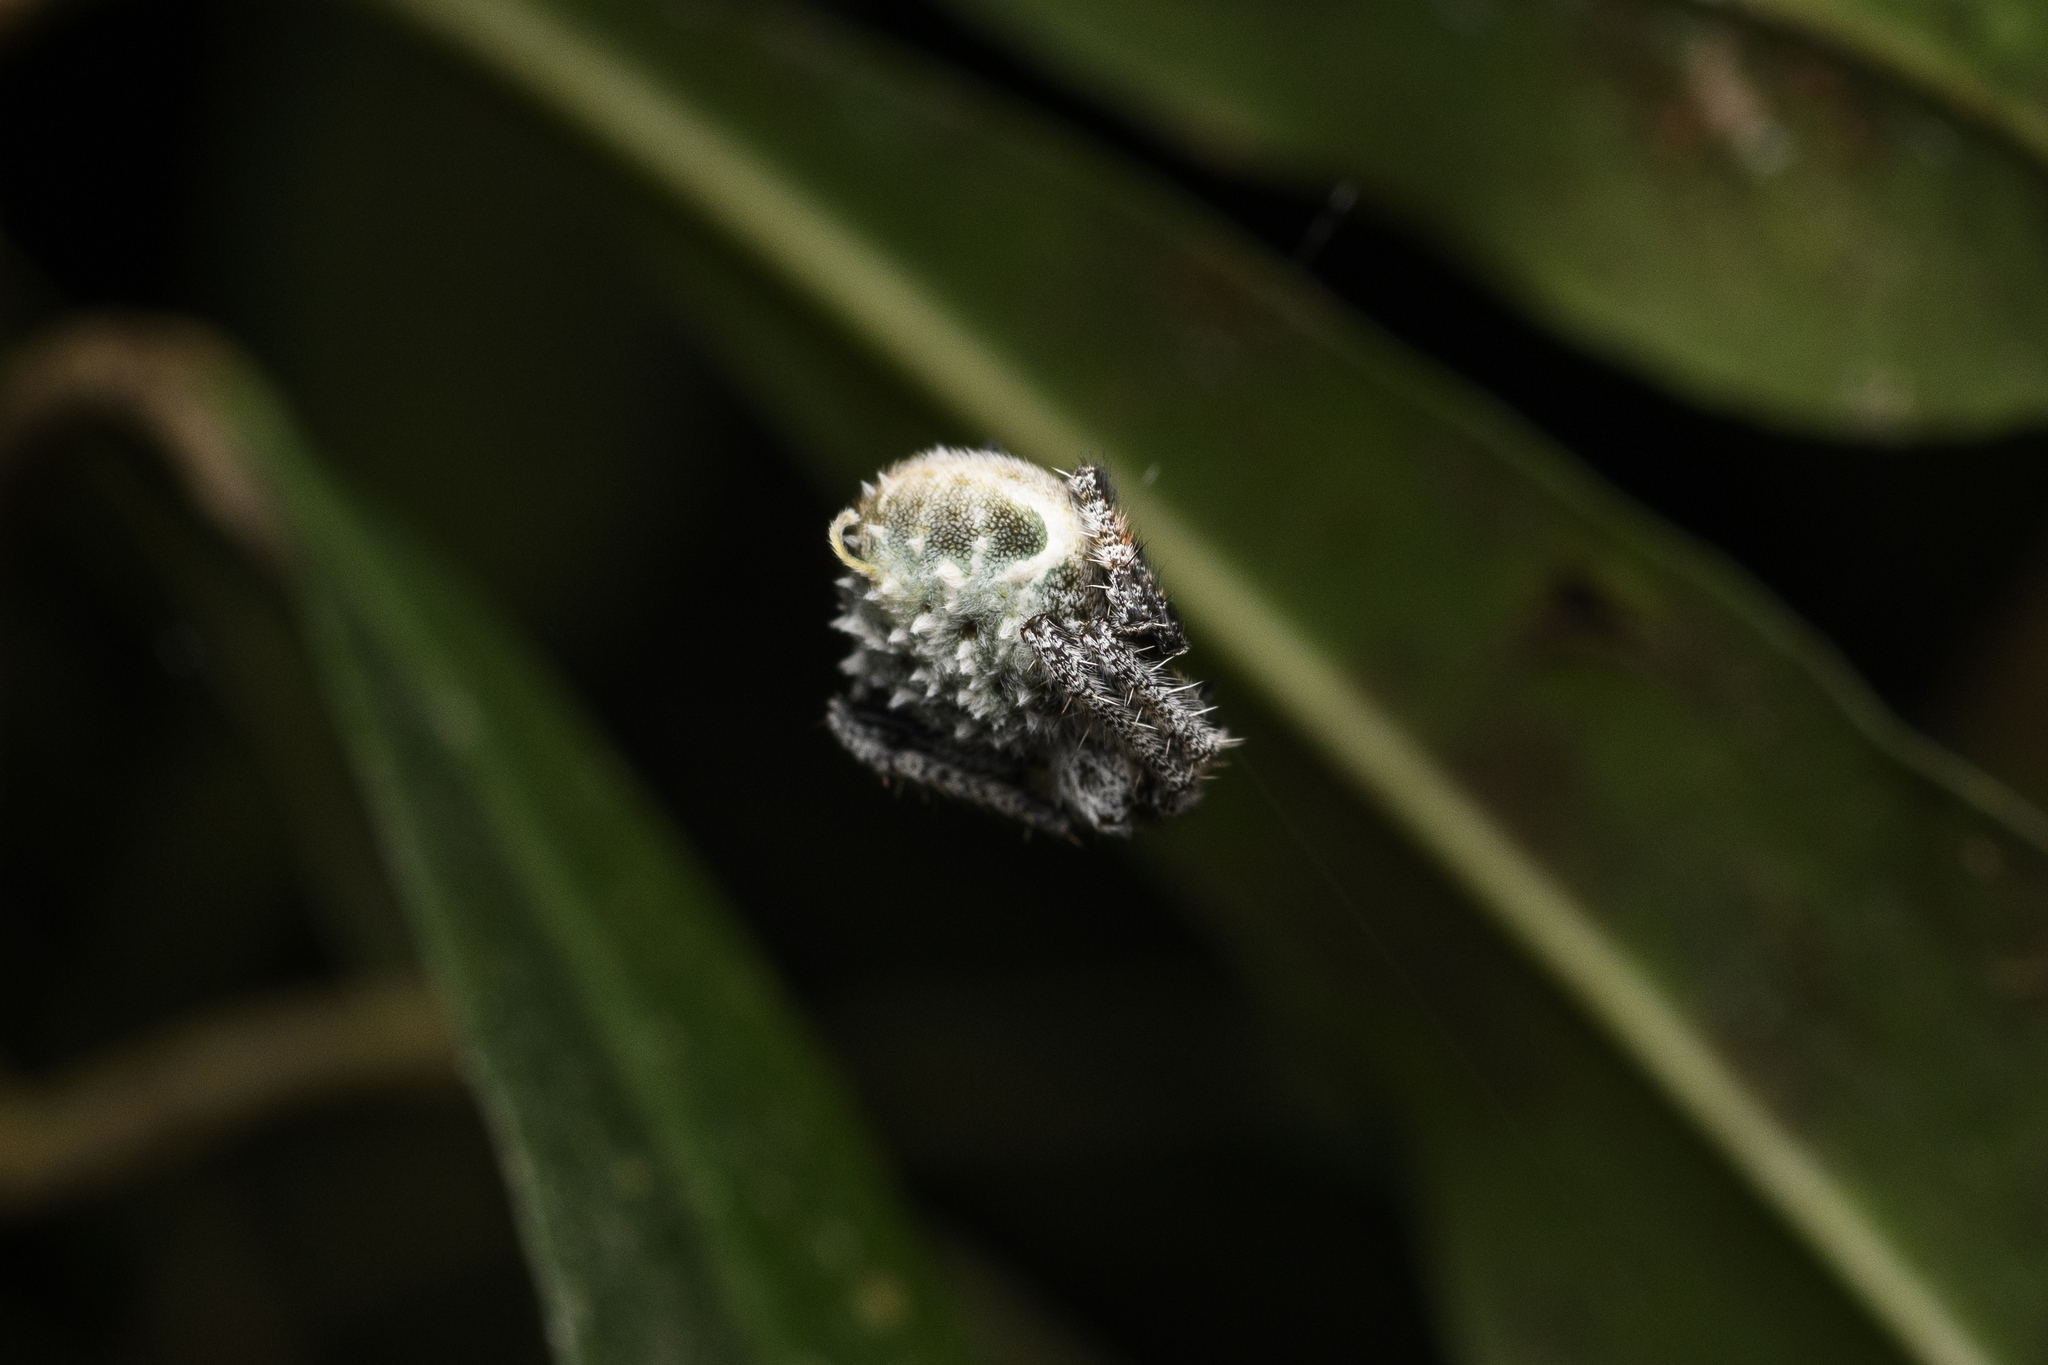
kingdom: Animalia
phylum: Arthropoda
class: Arachnida
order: Araneae
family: Araneidae
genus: Eriovixia
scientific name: Eriovixia laglaizei
